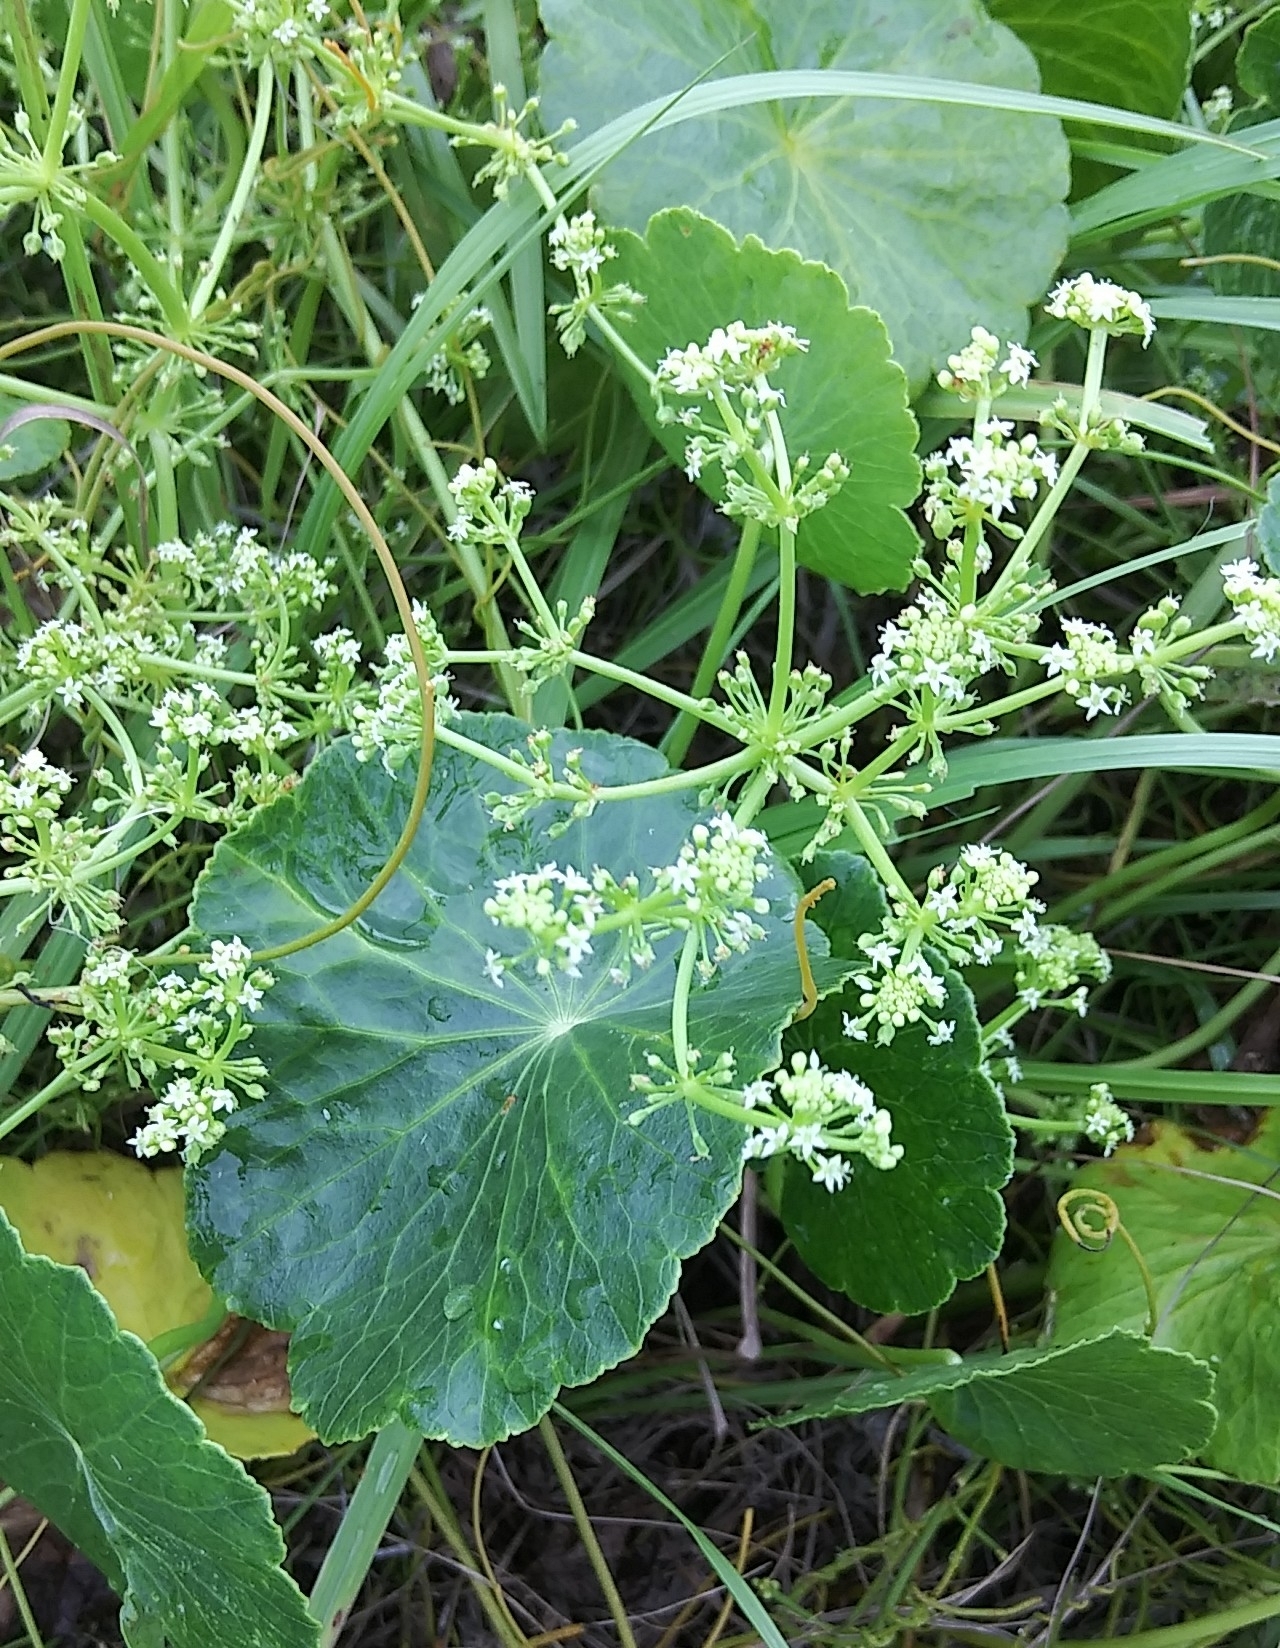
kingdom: Plantae
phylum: Tracheophyta
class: Magnoliopsida
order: Apiales
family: Araliaceae
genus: Hydrocotyle
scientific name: Hydrocotyle bonariensis
